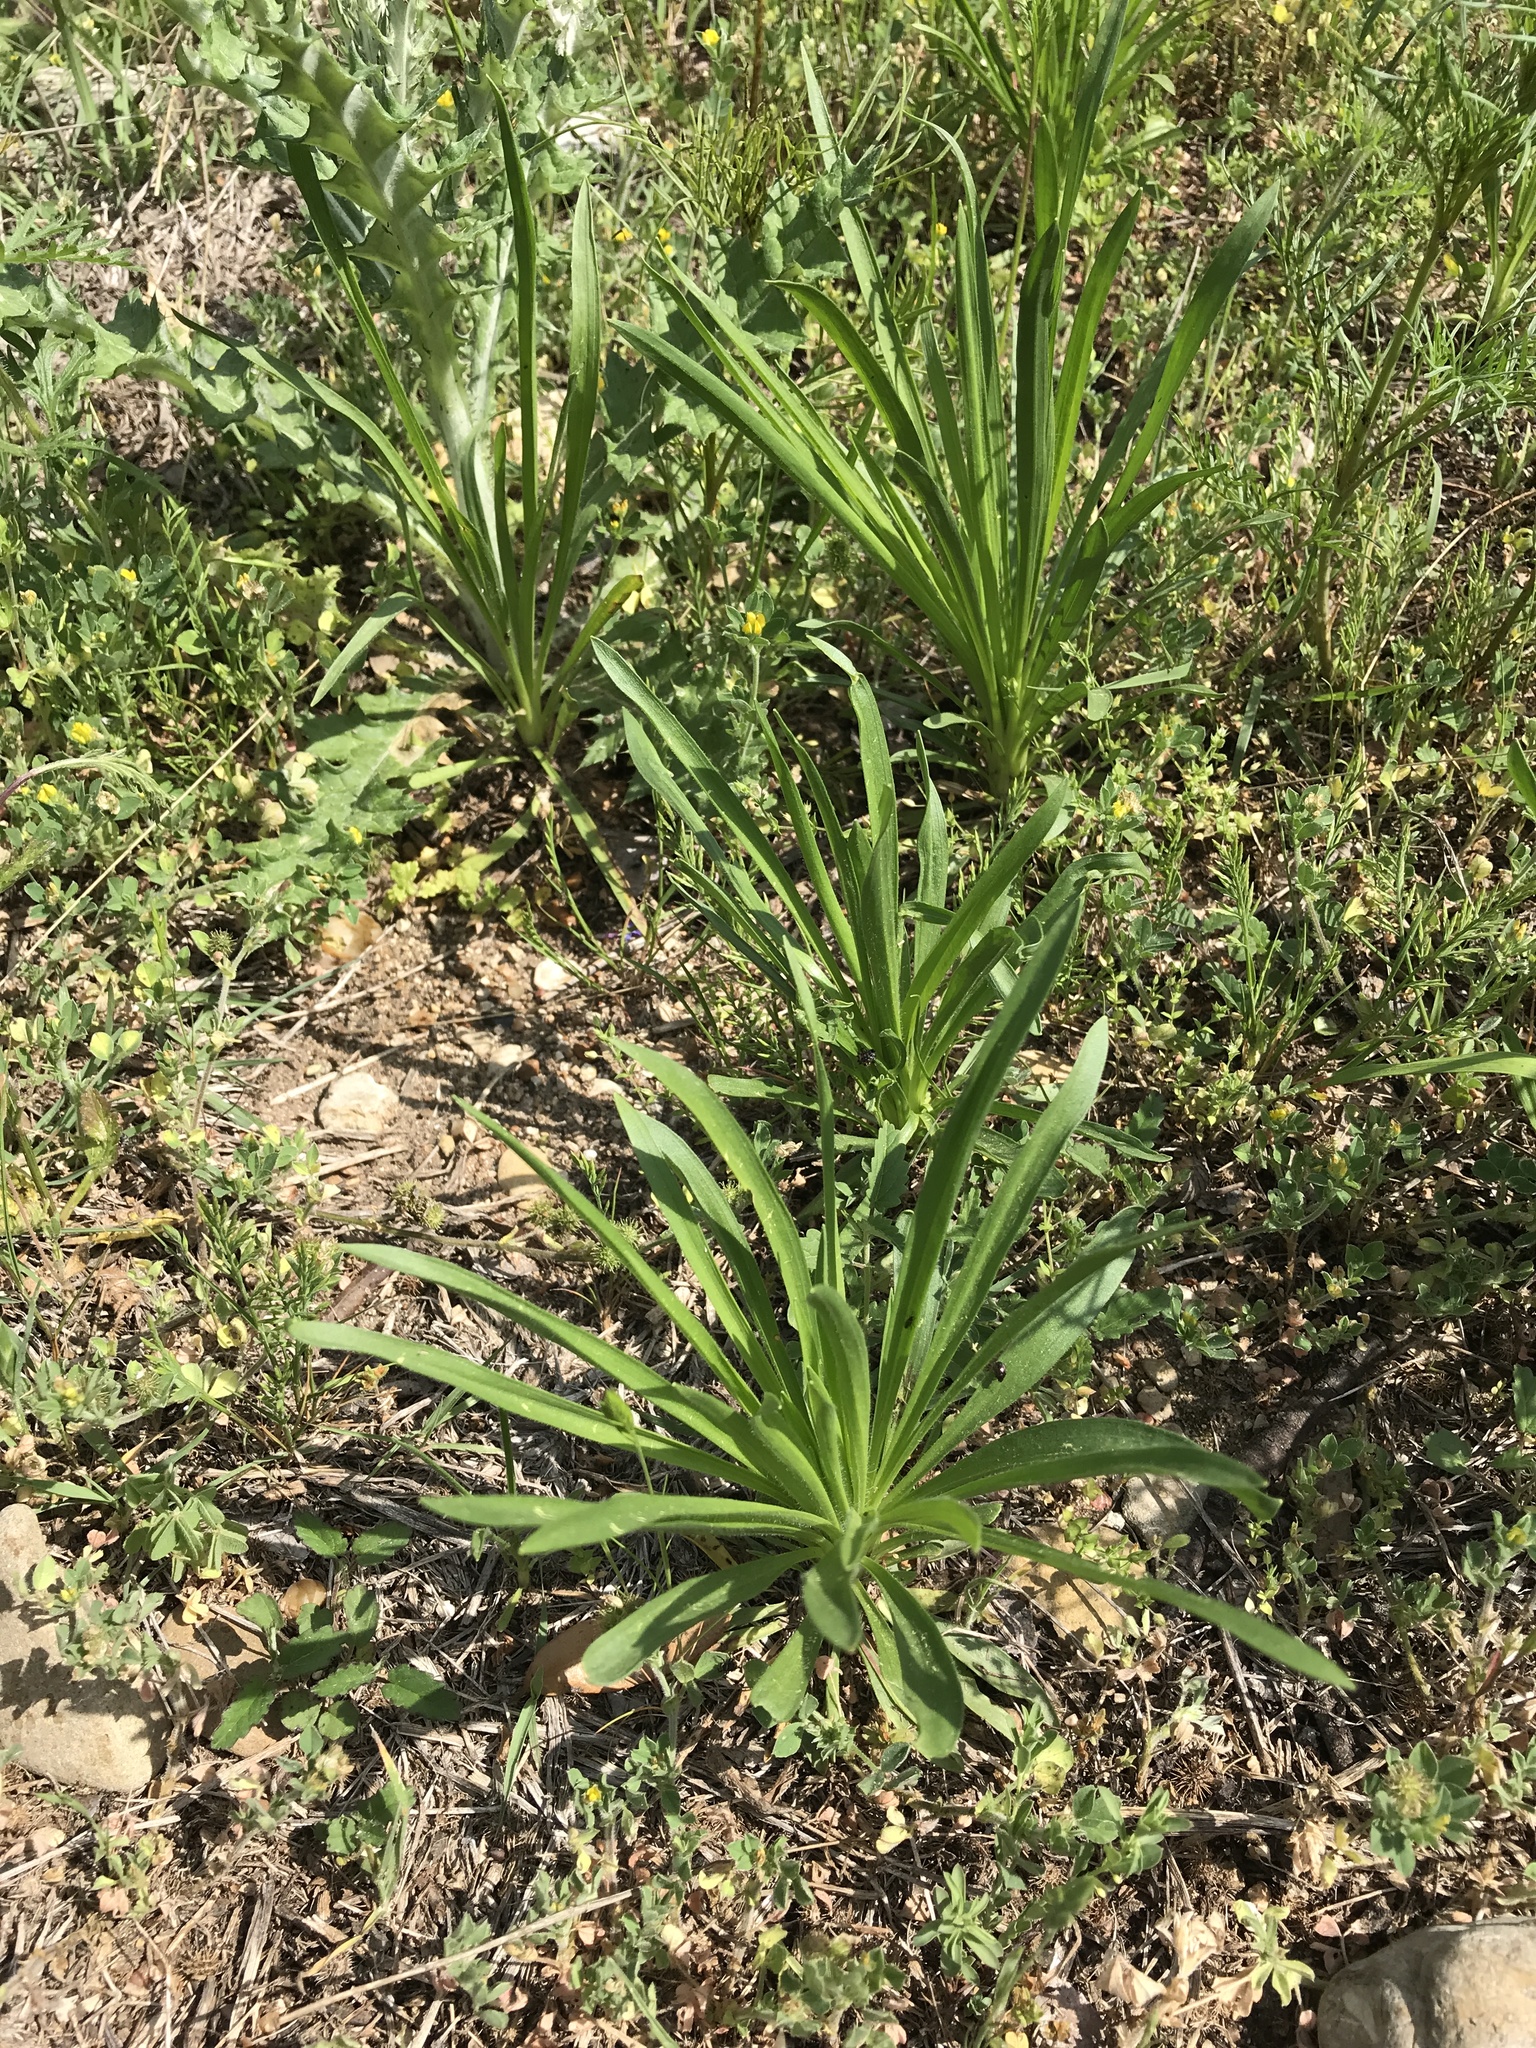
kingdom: Plantae
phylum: Tracheophyta
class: Magnoliopsida
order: Lamiales
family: Plantaginaceae
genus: Plantago
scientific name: Plantago wrightiana
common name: Wright's plantain
